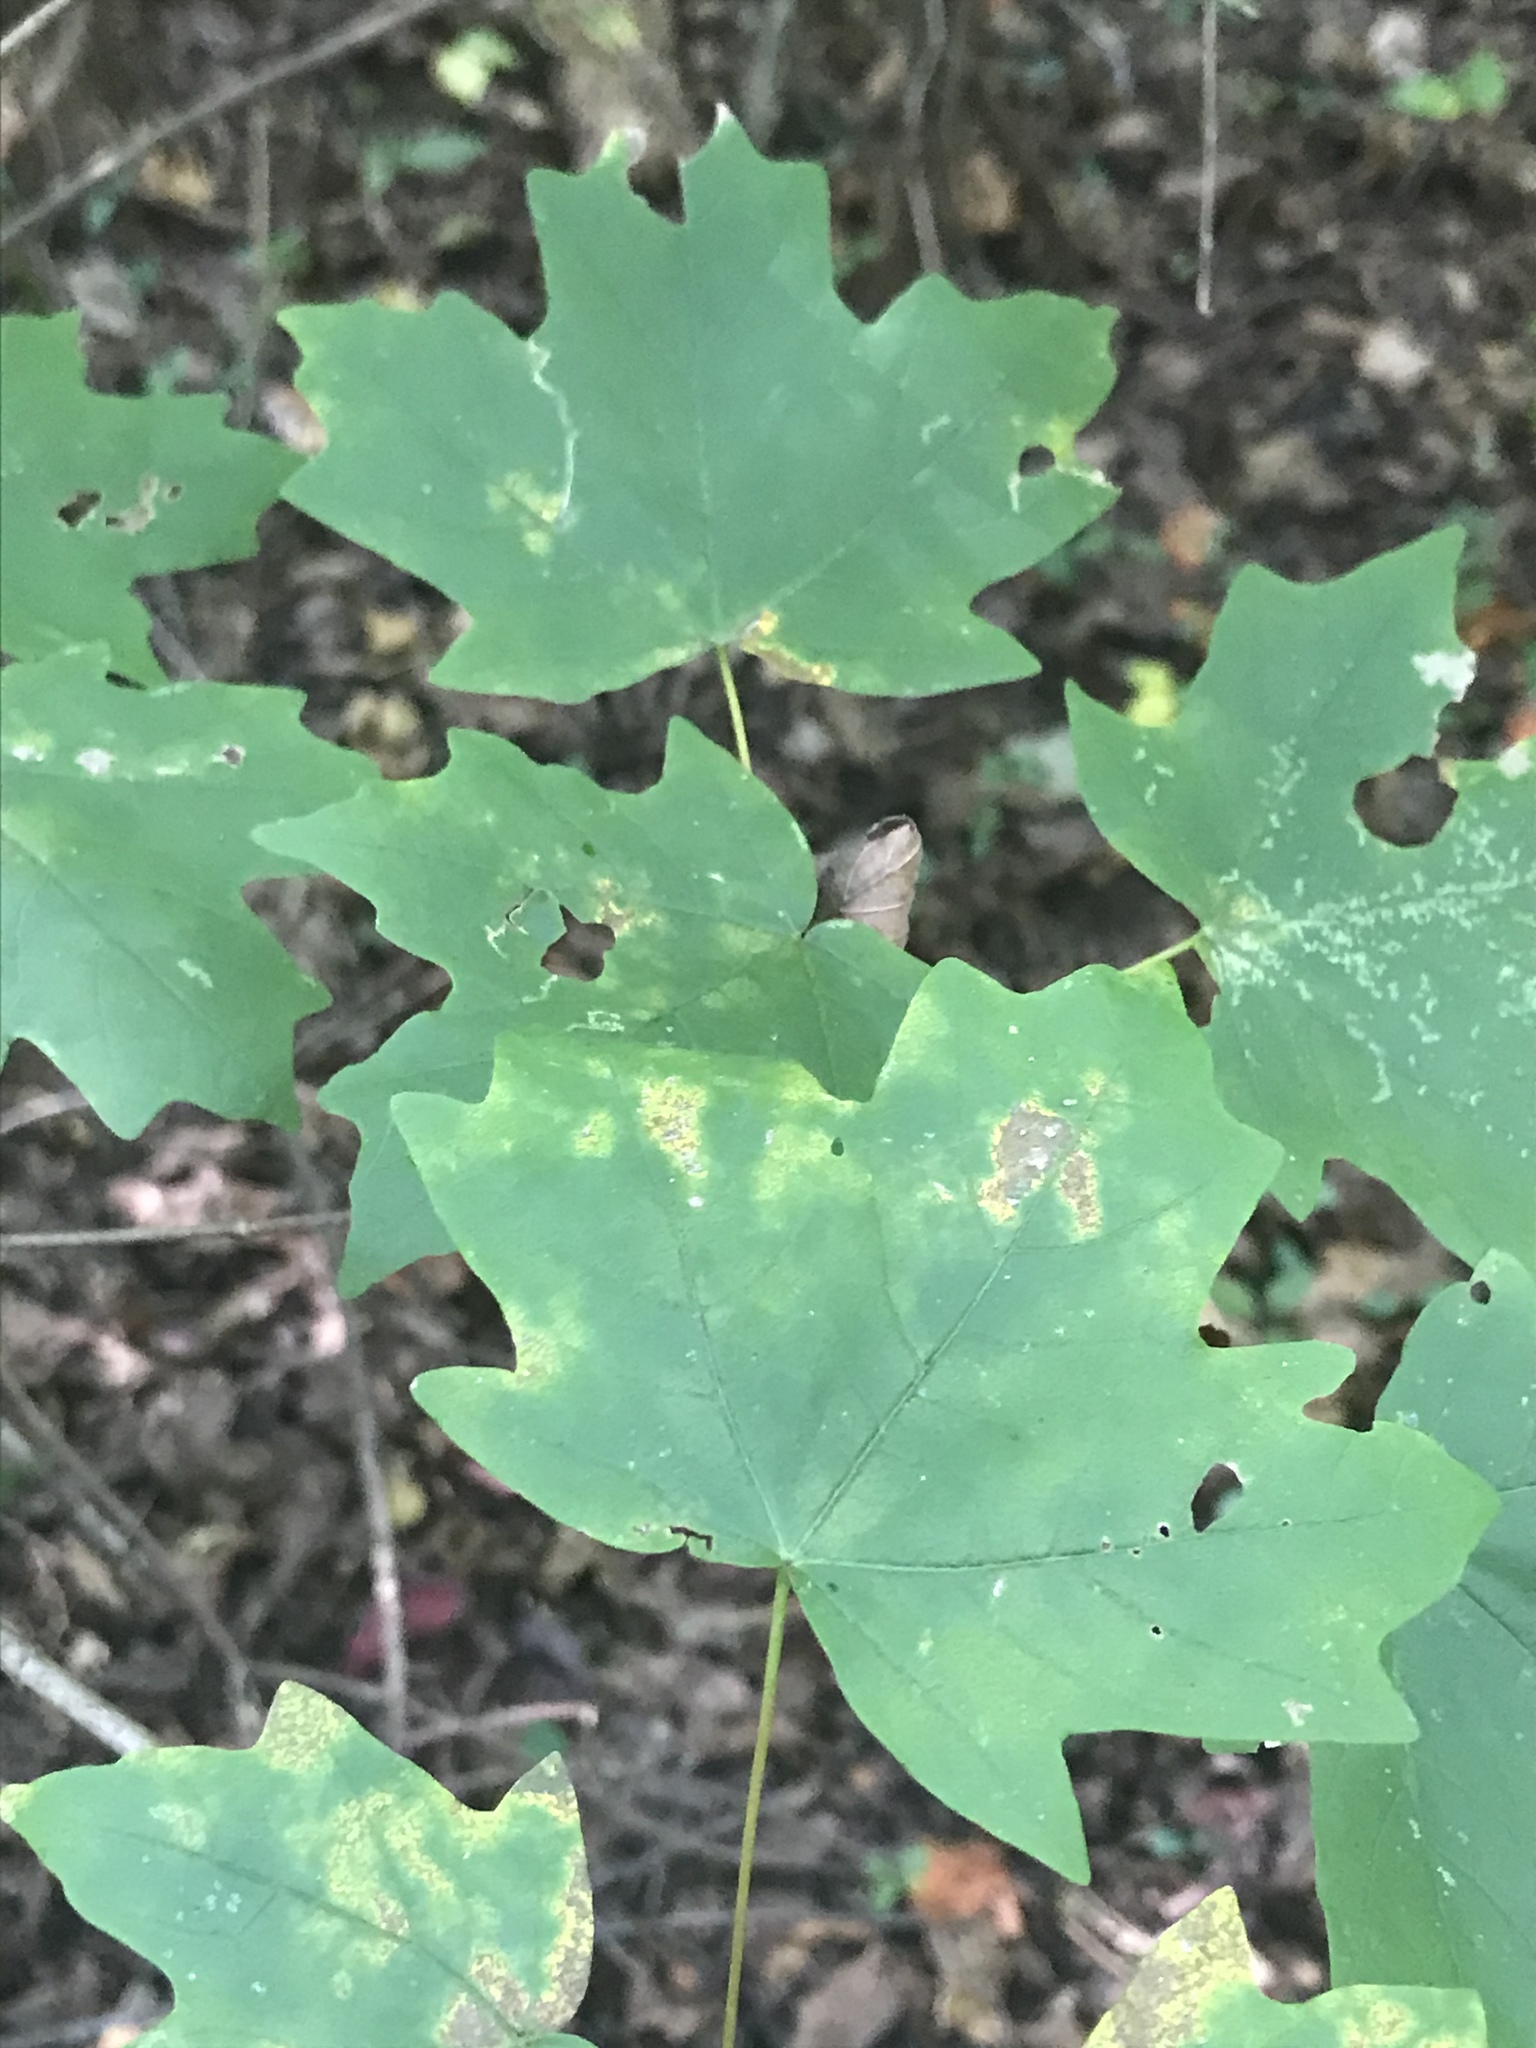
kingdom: Plantae
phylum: Tracheophyta
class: Magnoliopsida
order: Sapindales
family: Sapindaceae
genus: Acer
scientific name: Acer floridanum
